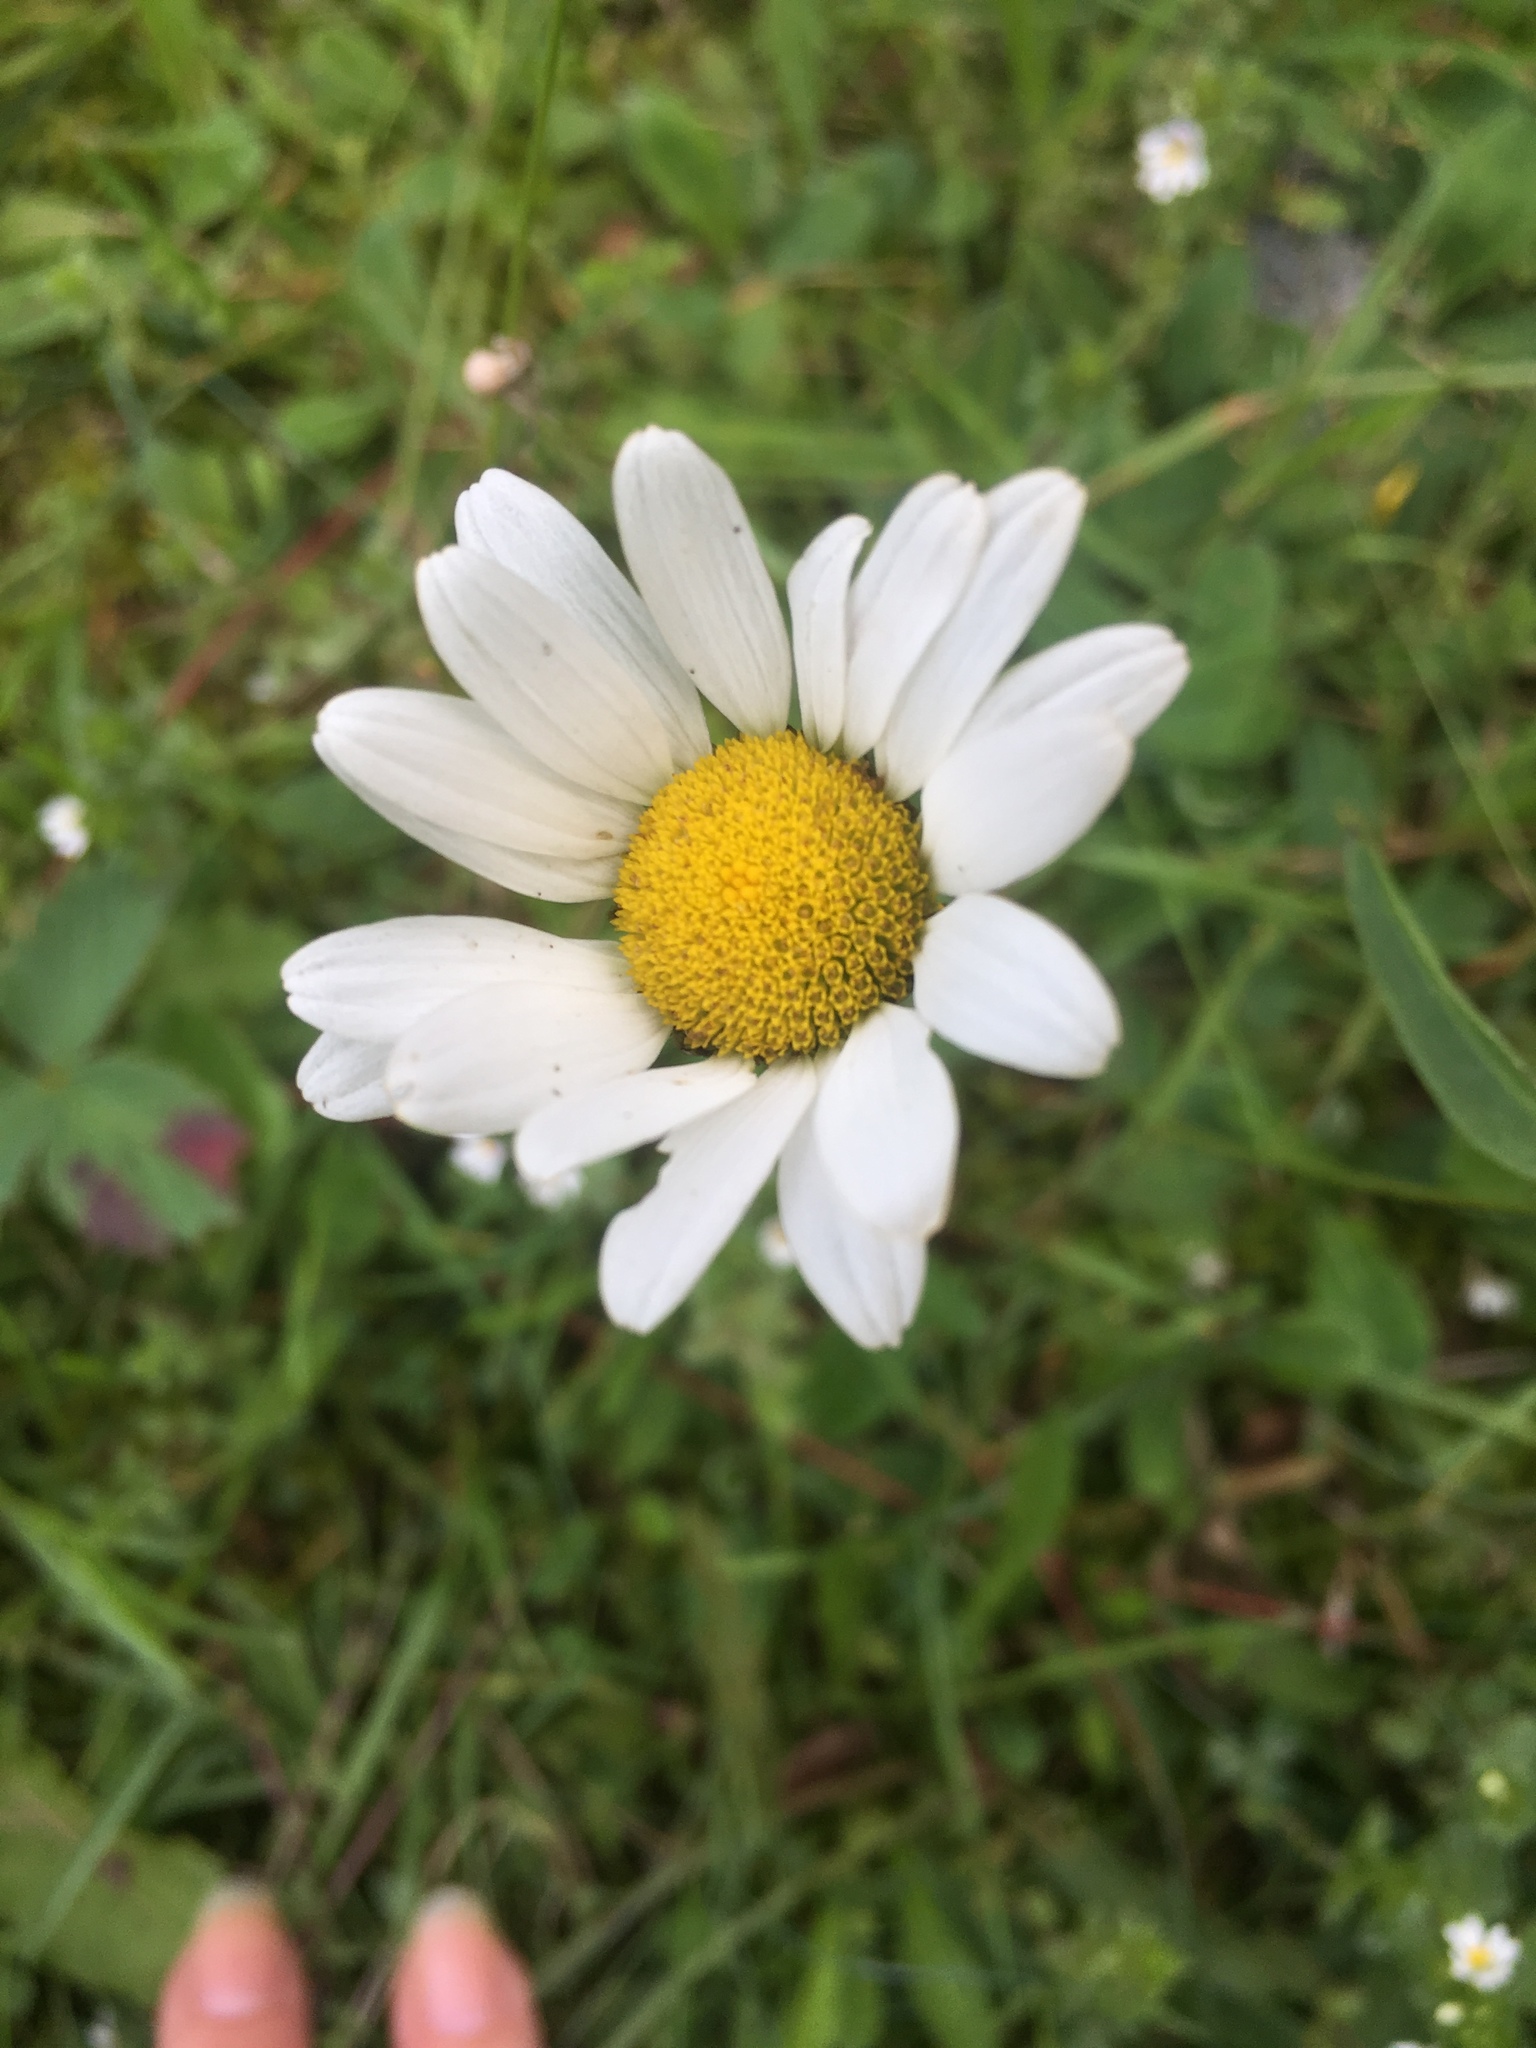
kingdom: Plantae
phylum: Tracheophyta
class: Magnoliopsida
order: Asterales
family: Asteraceae
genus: Leucanthemum
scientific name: Leucanthemum vulgare
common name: Oxeye daisy
